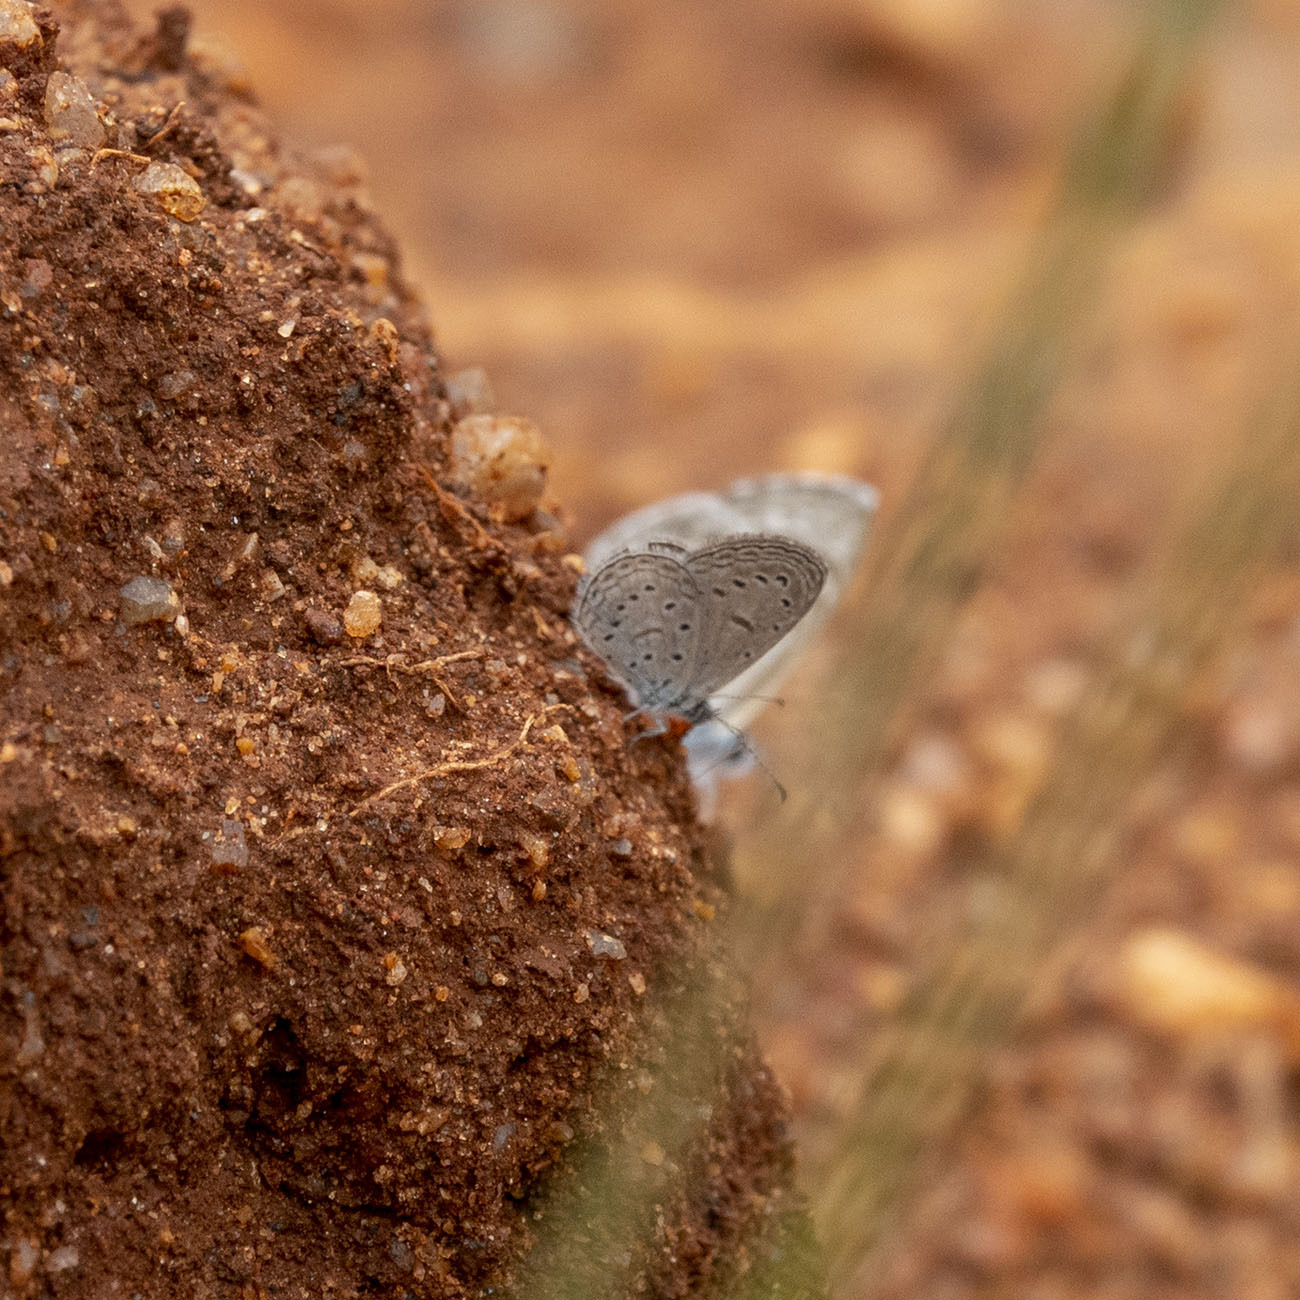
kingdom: Animalia
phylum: Arthropoda
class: Insecta
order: Lepidoptera
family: Lycaenidae
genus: Zizula
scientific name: Zizula hylax
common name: Gaika blue
